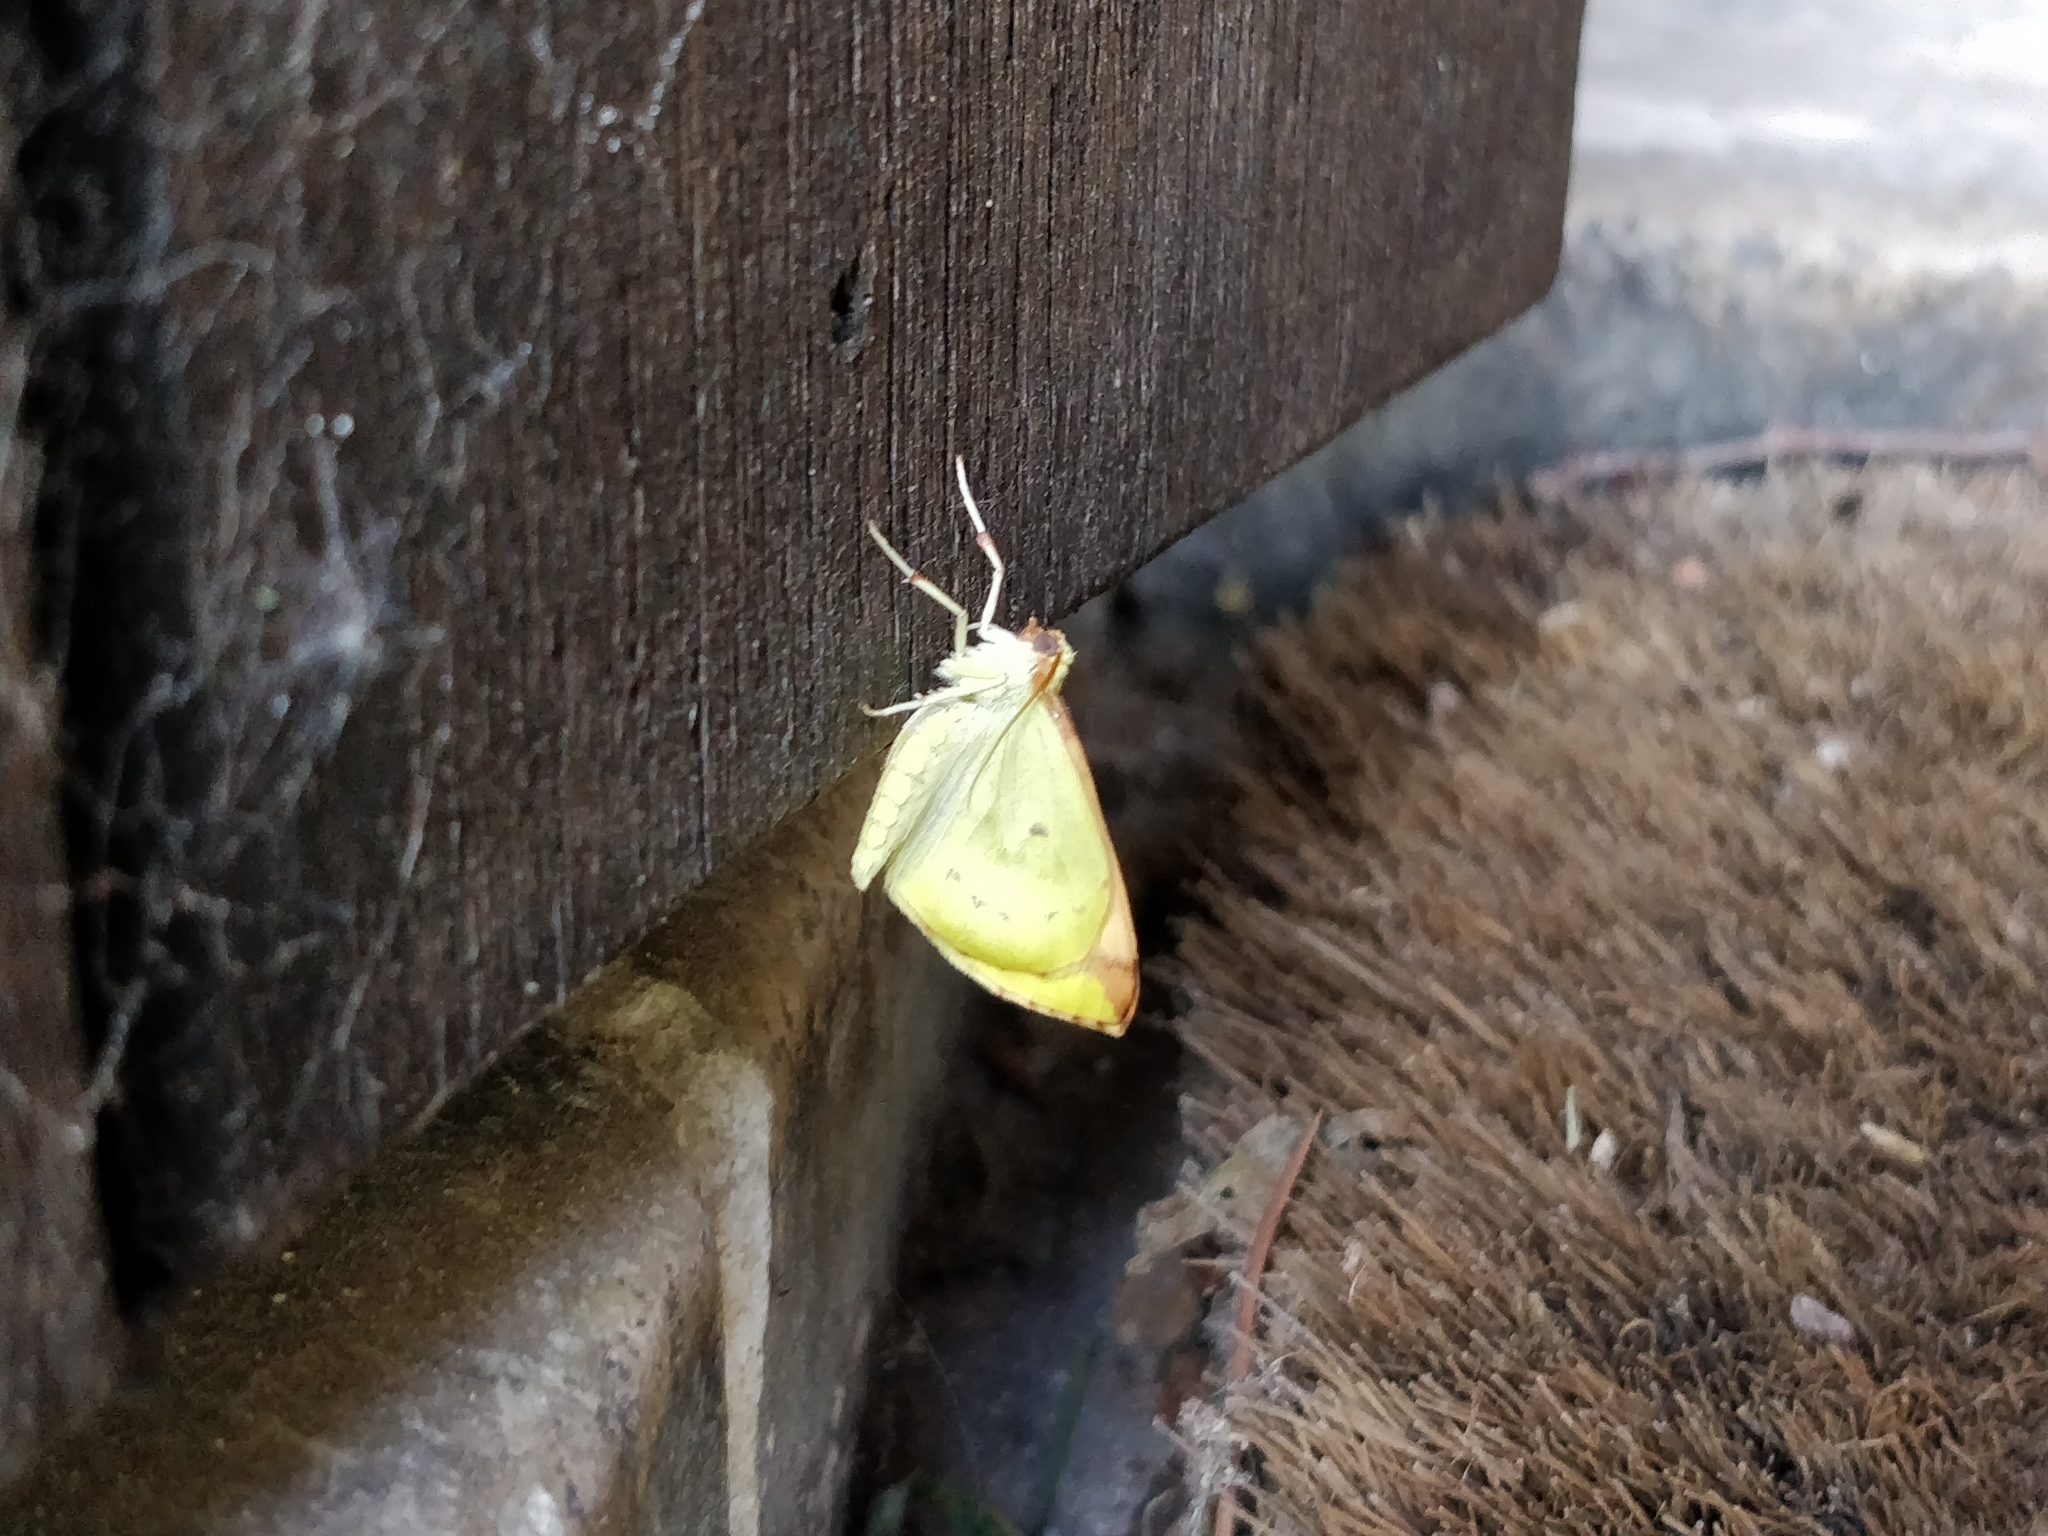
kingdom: Animalia
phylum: Arthropoda
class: Insecta
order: Lepidoptera
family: Geometridae
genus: Opisthograptis
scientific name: Opisthograptis luteolata
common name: Brimstone moth
